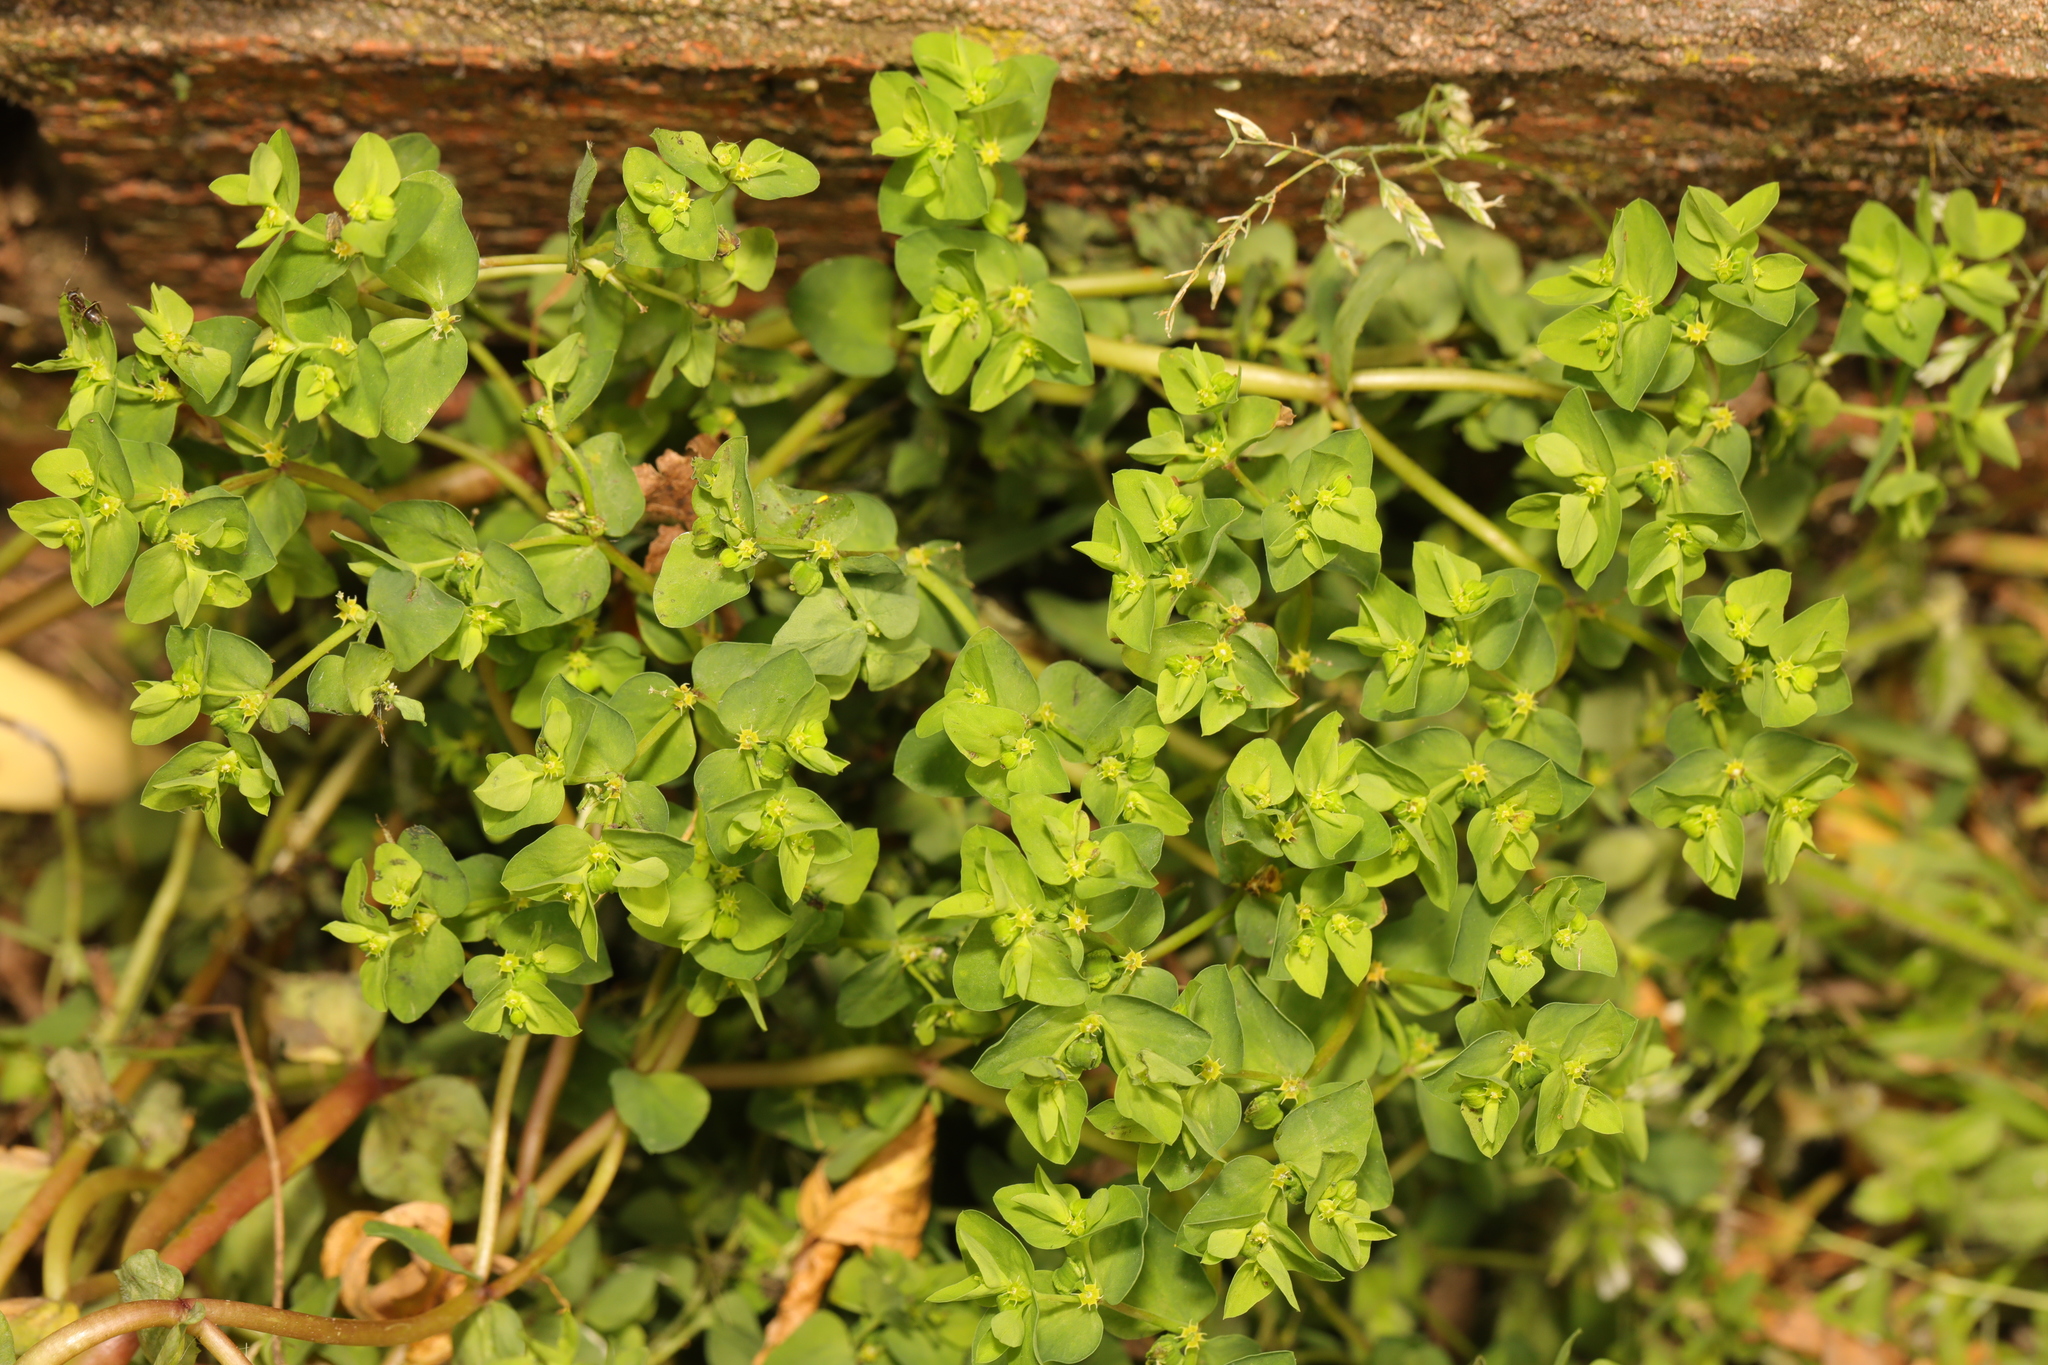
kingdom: Plantae
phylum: Tracheophyta
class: Magnoliopsida
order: Malpighiales
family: Euphorbiaceae
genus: Euphorbia
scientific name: Euphorbia peplus
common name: Petty spurge
